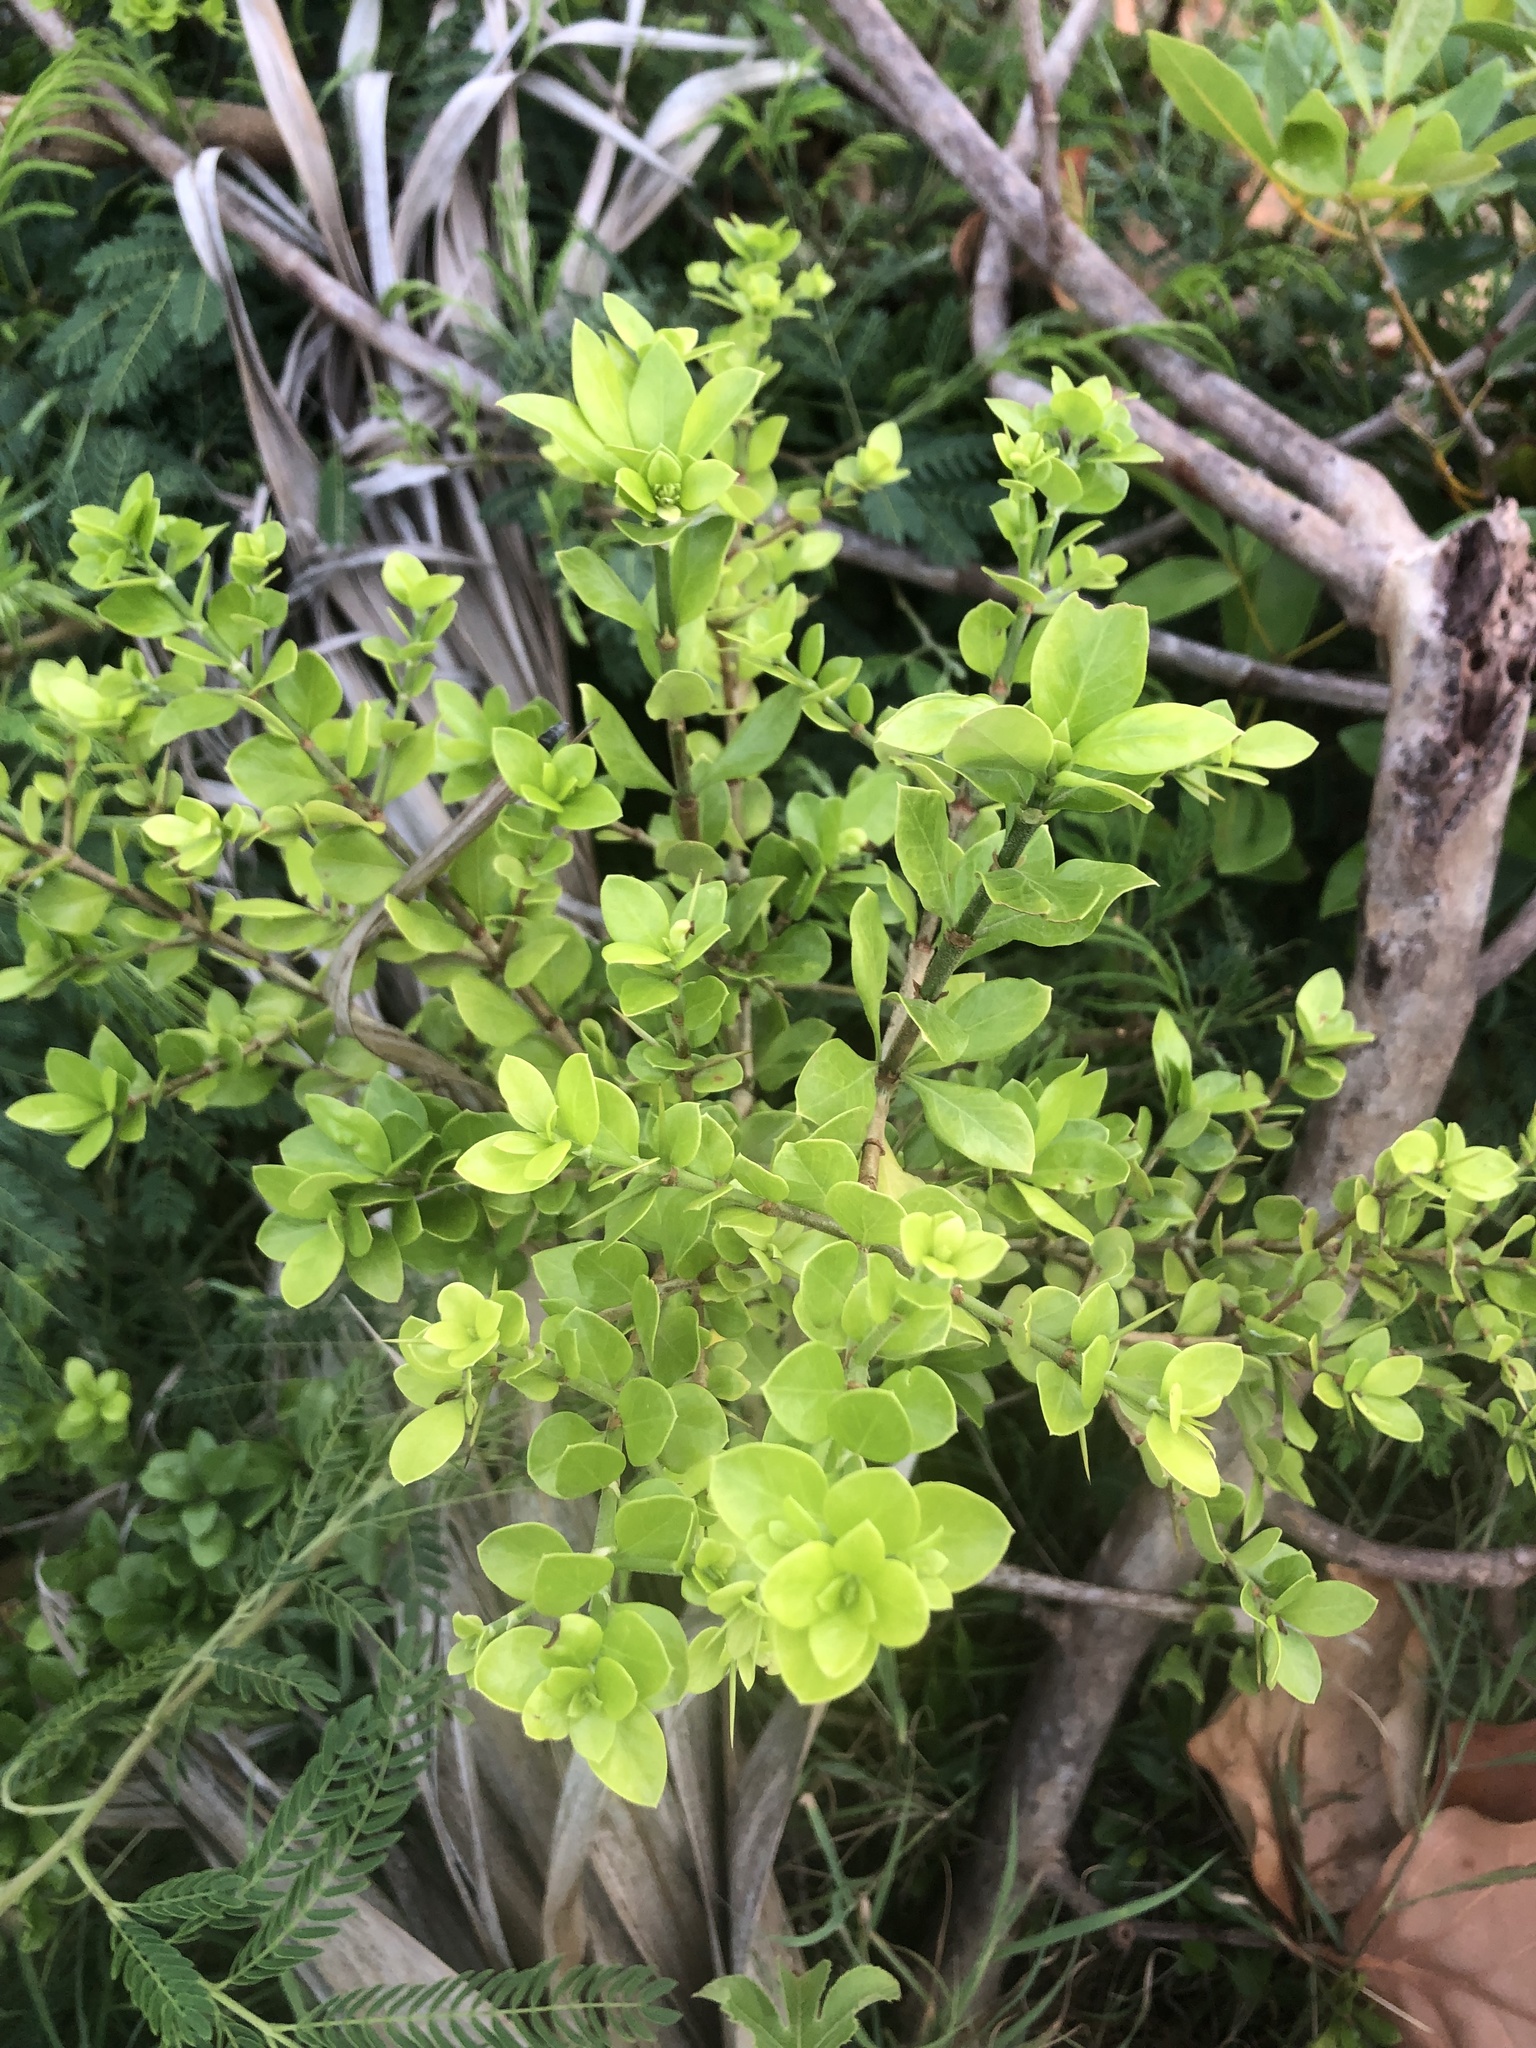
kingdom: Plantae
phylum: Tracheophyta
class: Magnoliopsida
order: Gentianales
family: Rubiaceae
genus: Randia
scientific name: Randia aculeata
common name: Inkberry
